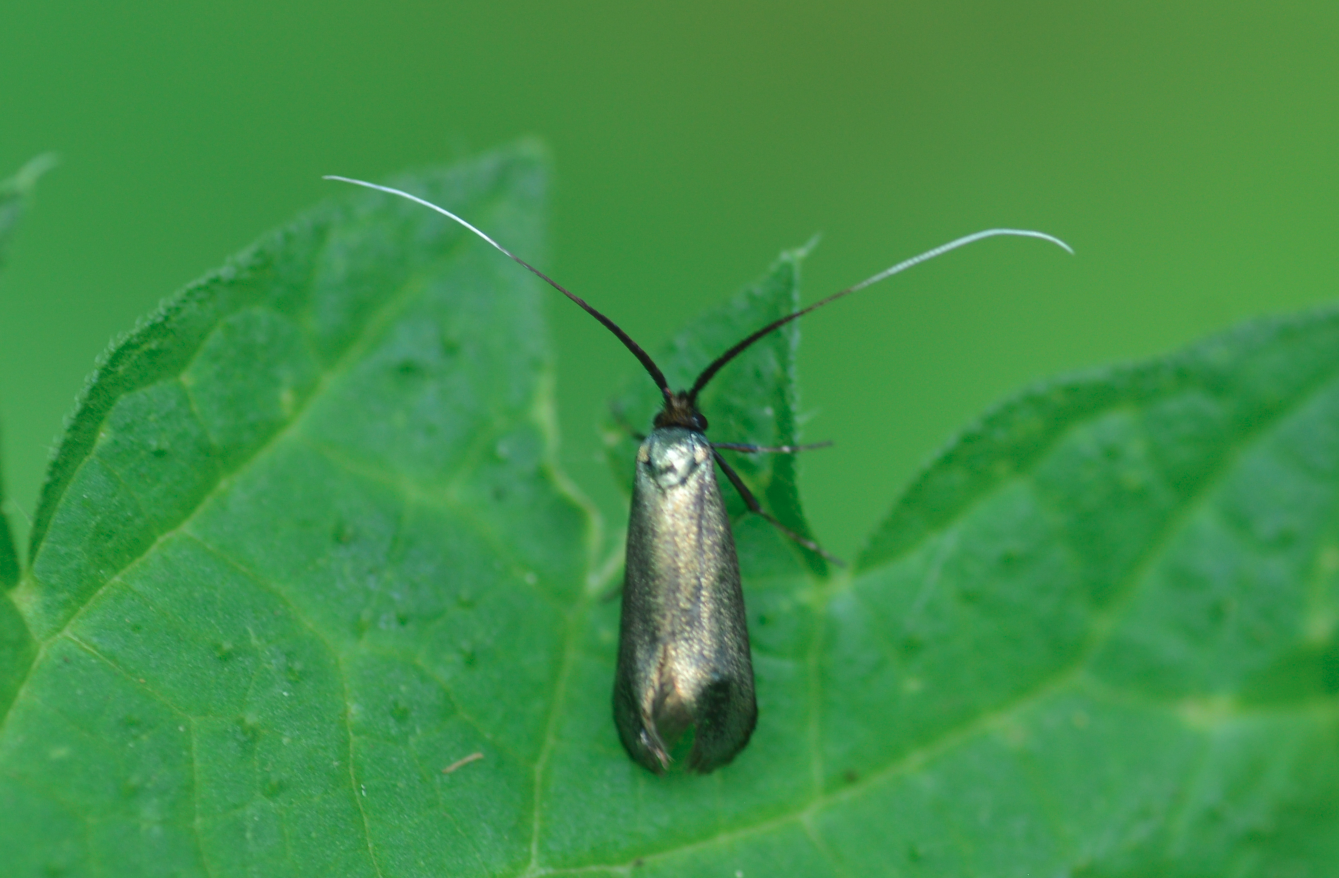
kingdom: Animalia
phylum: Arthropoda
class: Insecta
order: Lepidoptera
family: Adelidae
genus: Adela
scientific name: Adela viridella
